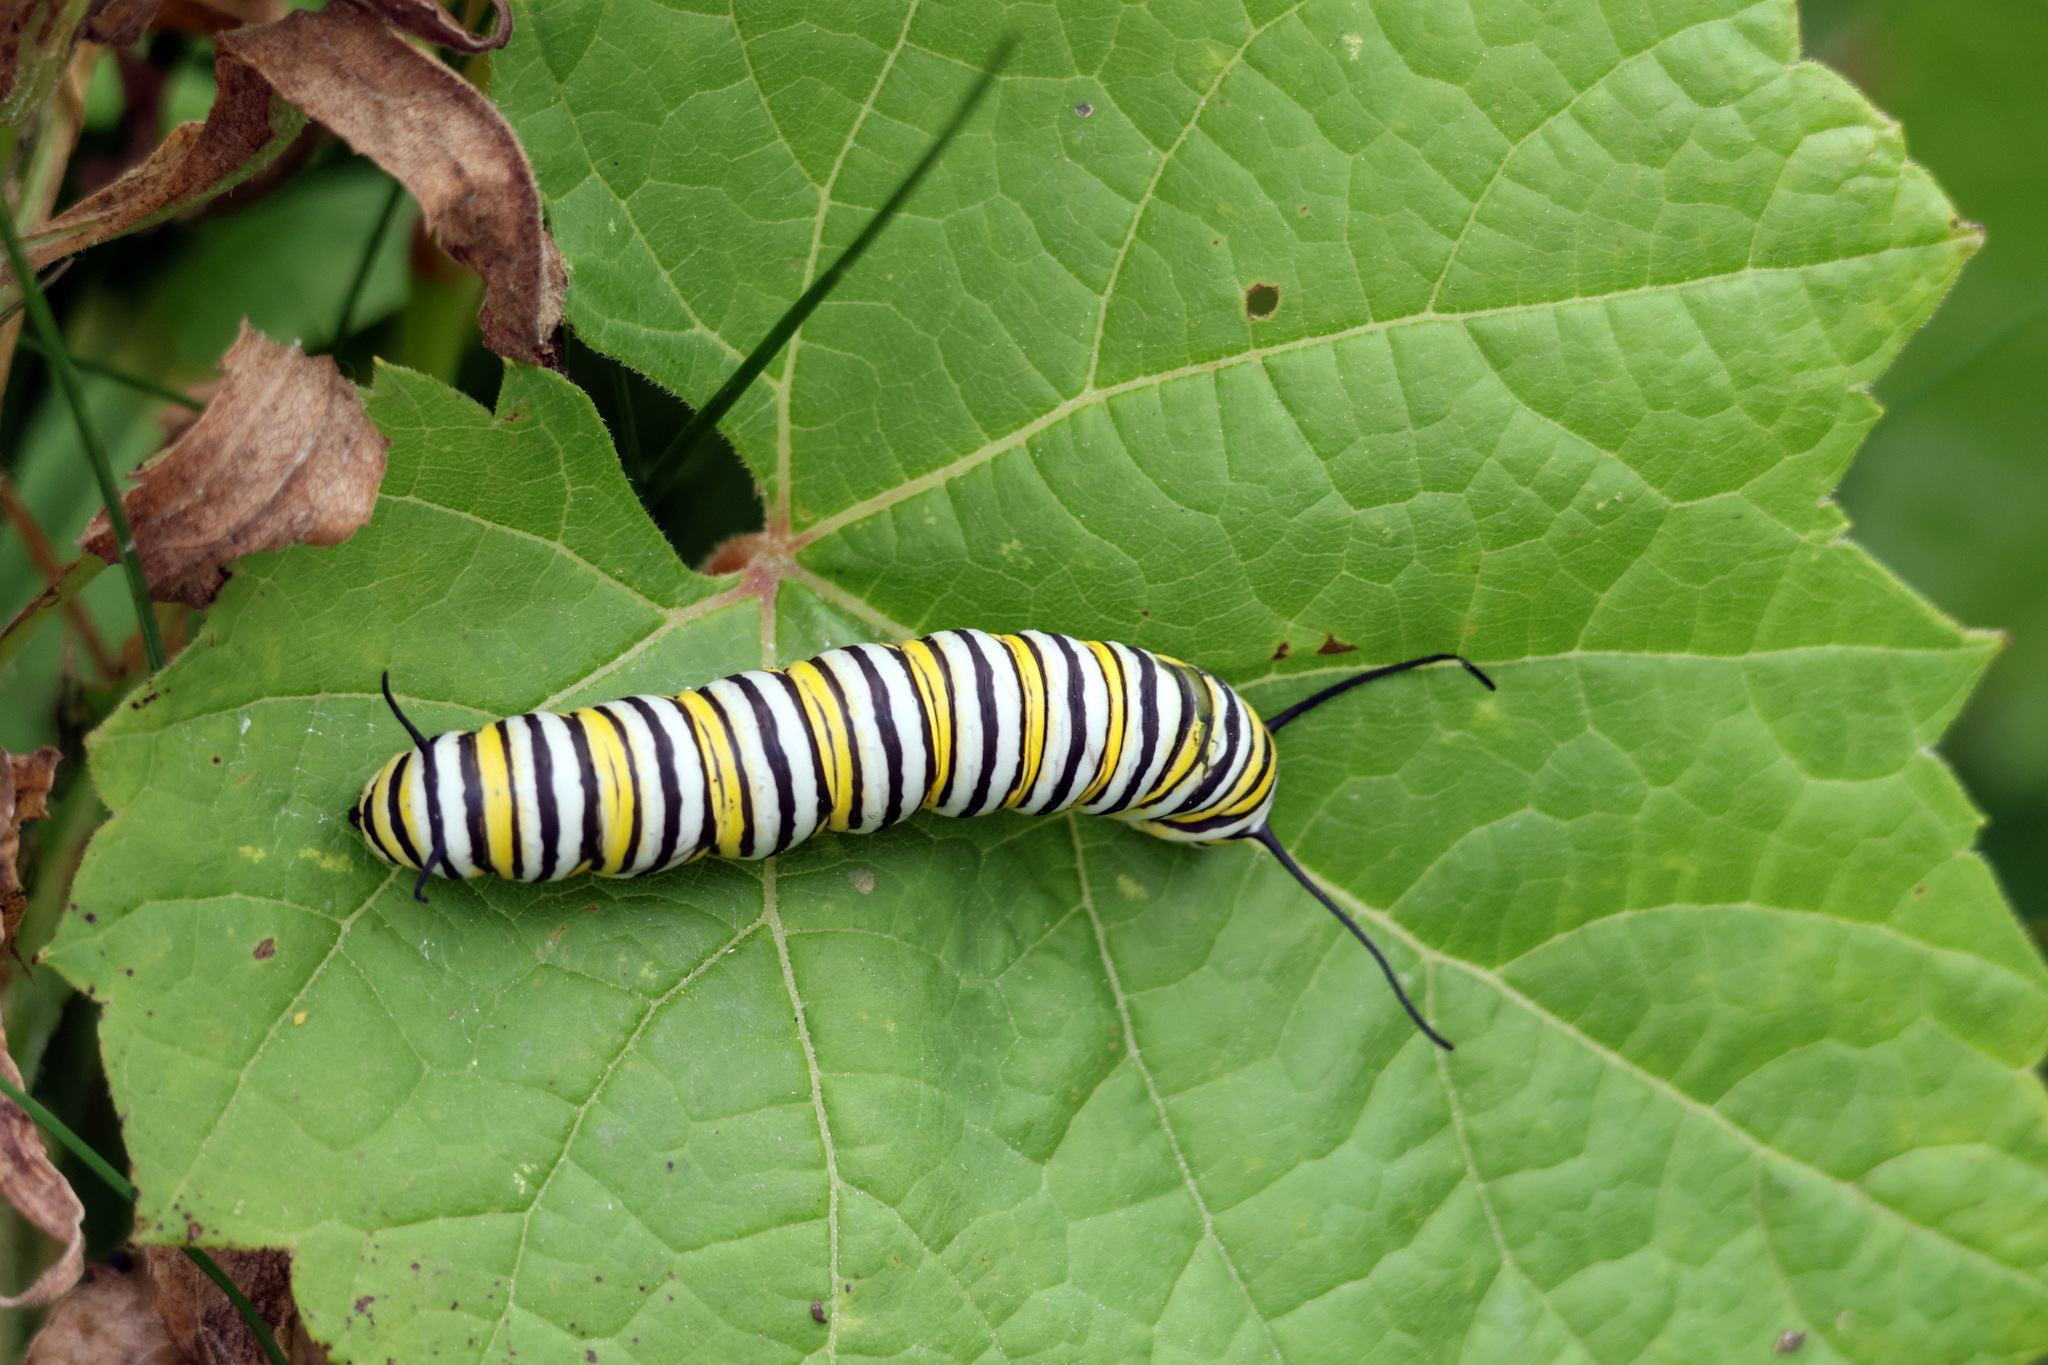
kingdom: Animalia
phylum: Arthropoda
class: Insecta
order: Lepidoptera
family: Nymphalidae
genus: Danaus
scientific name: Danaus plexippus
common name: Monarch
